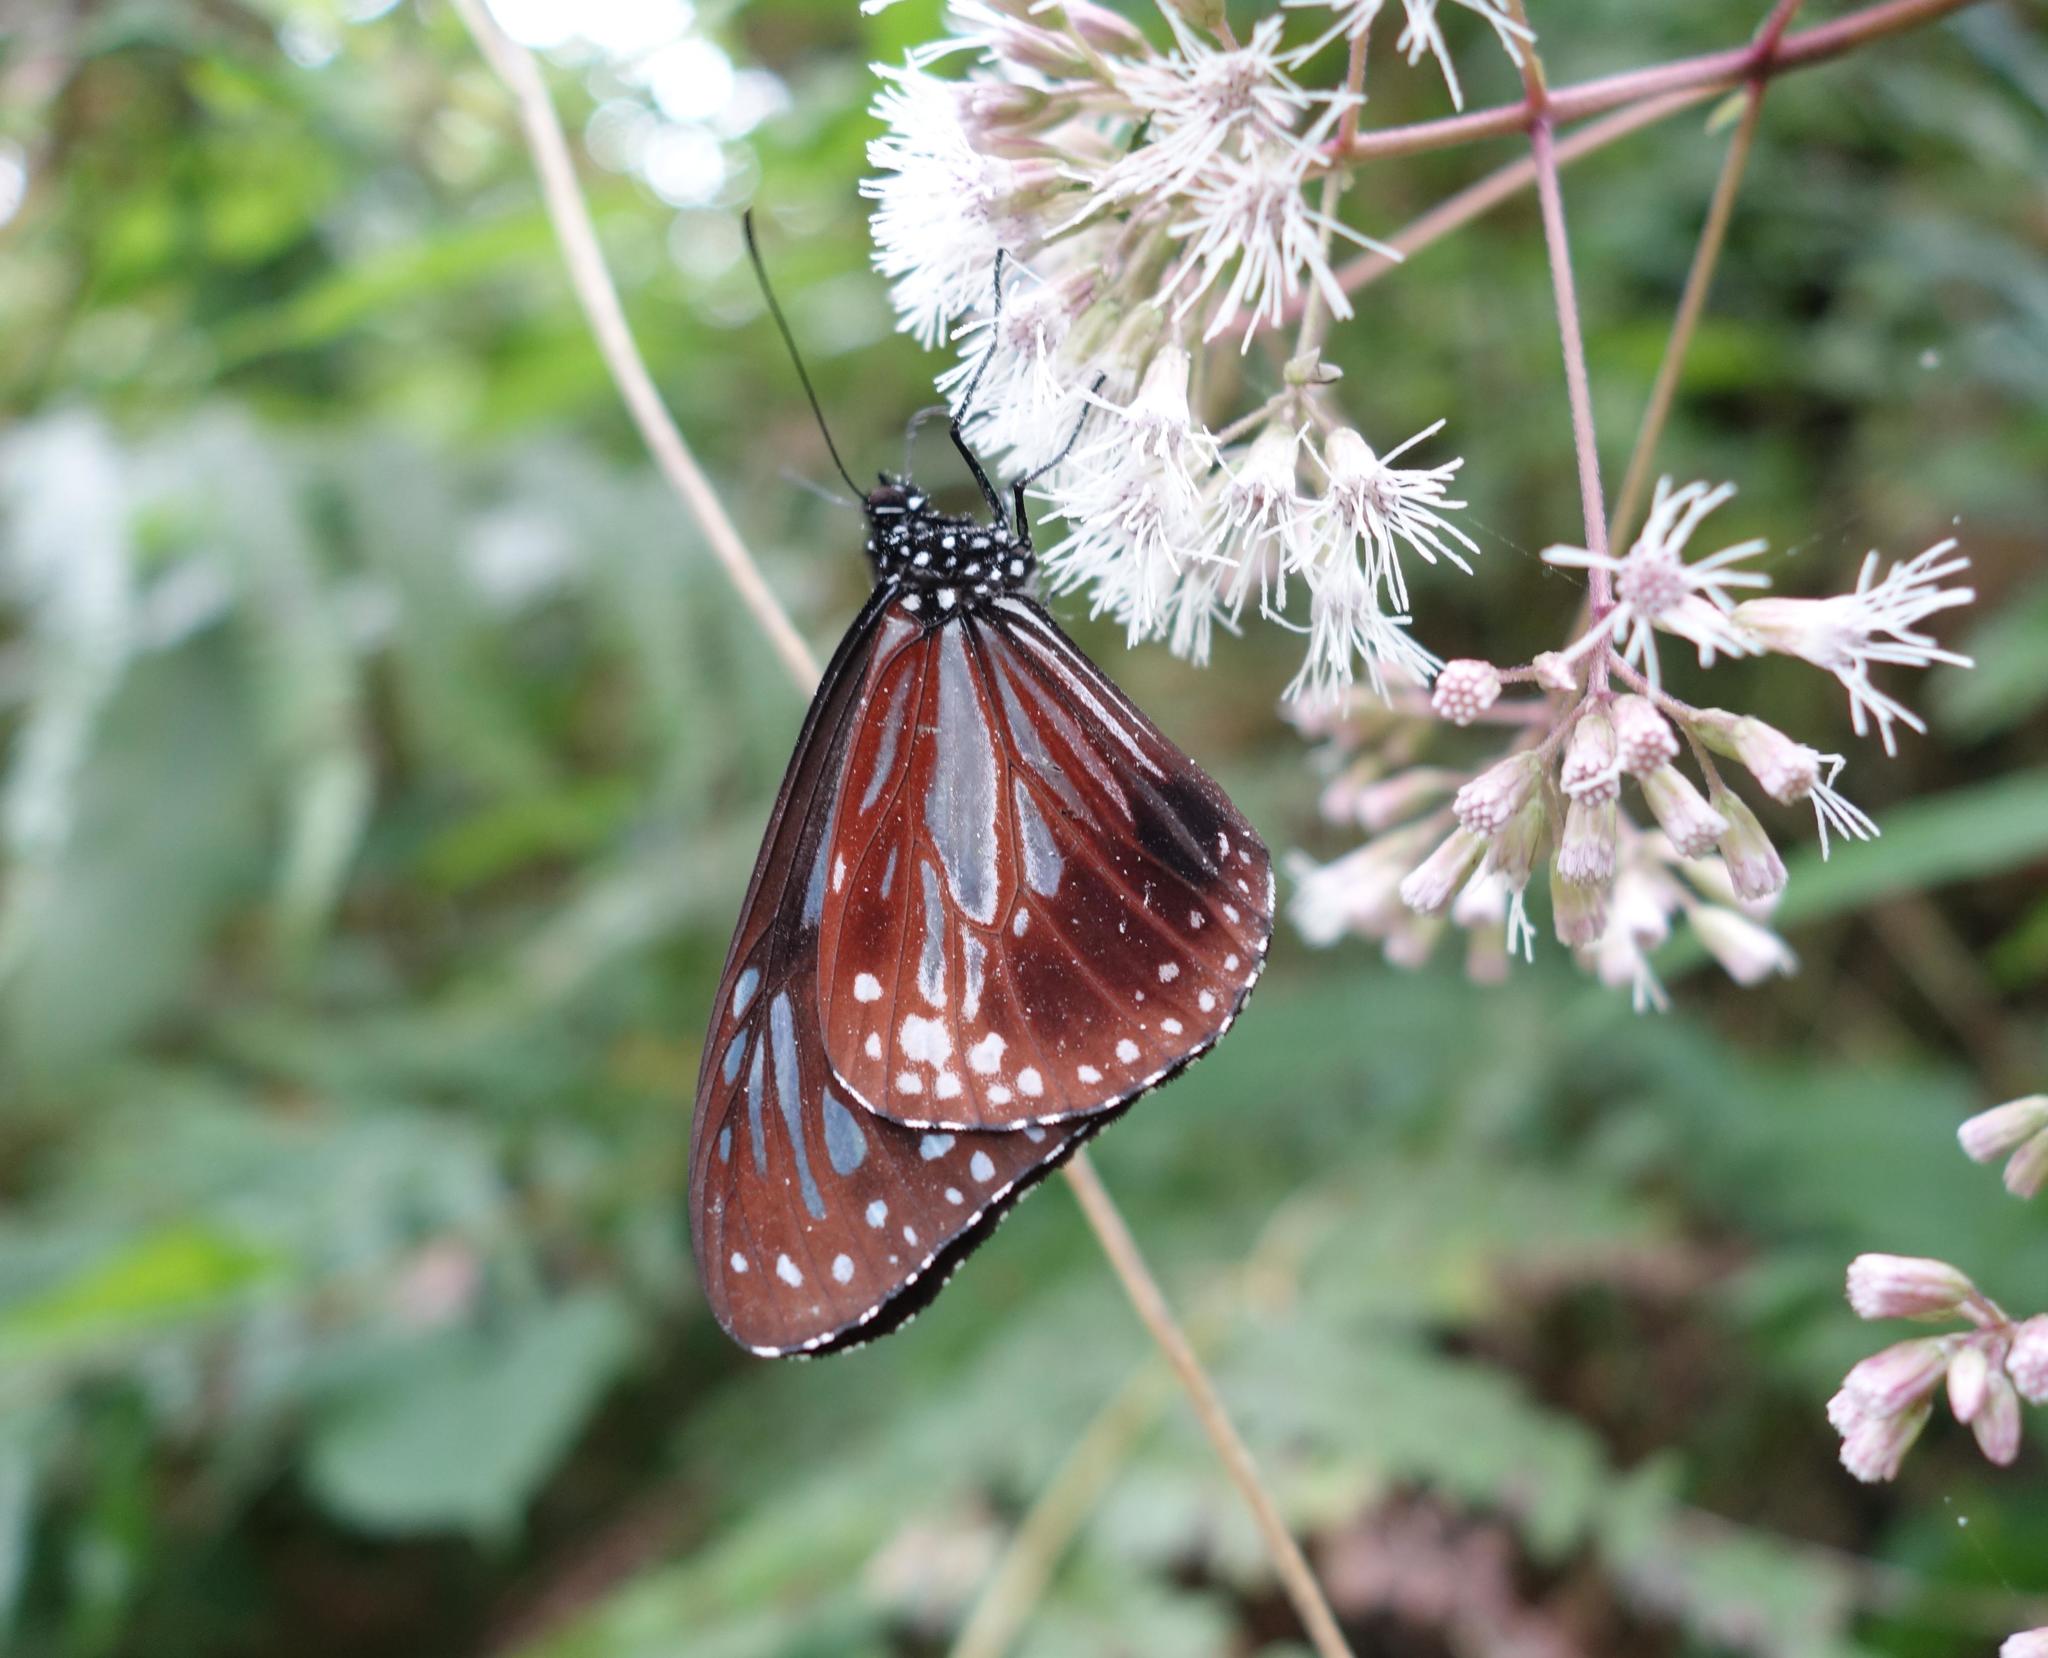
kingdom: Animalia
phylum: Arthropoda
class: Insecta
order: Lepidoptera
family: Nymphalidae
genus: Parantica
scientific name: Parantica melaneus
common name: Chocolate tiger
